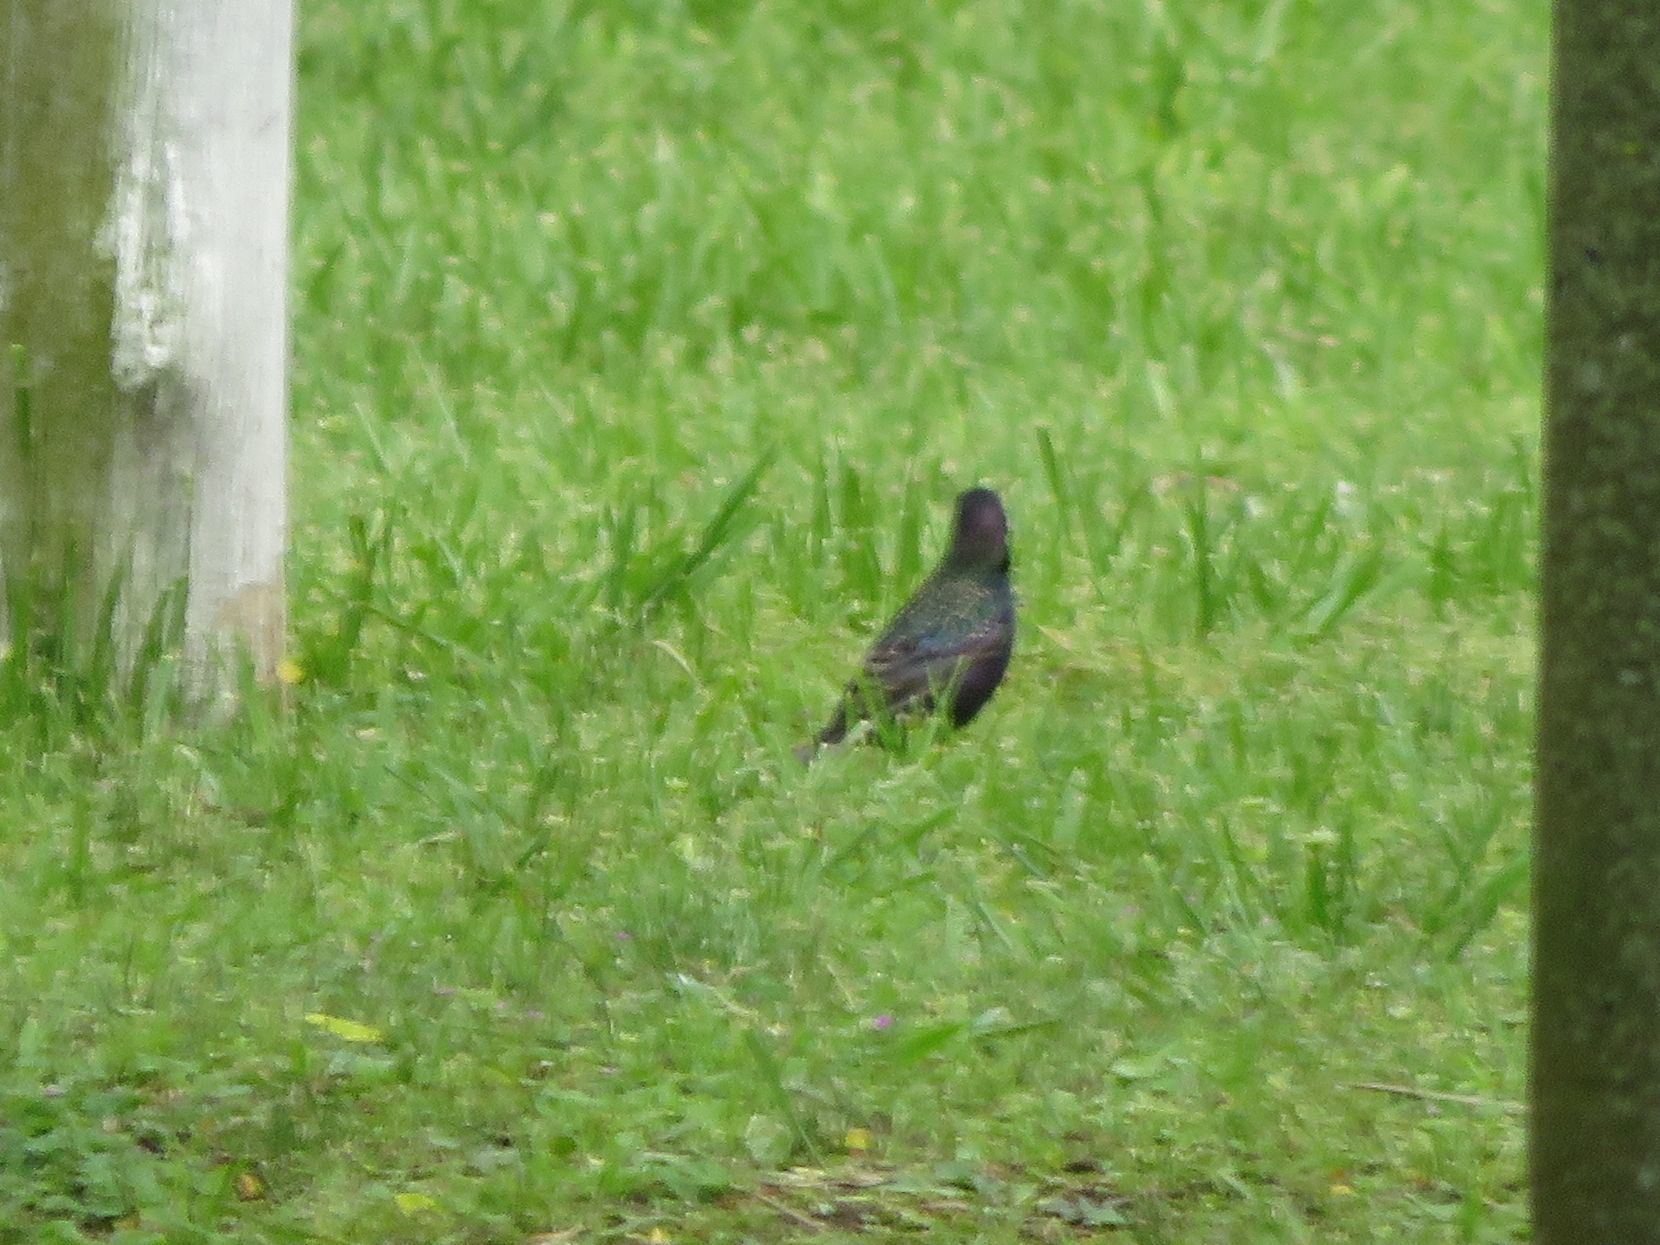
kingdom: Animalia
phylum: Chordata
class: Aves
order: Passeriformes
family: Sturnidae
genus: Sturnus
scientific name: Sturnus vulgaris
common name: Common starling
